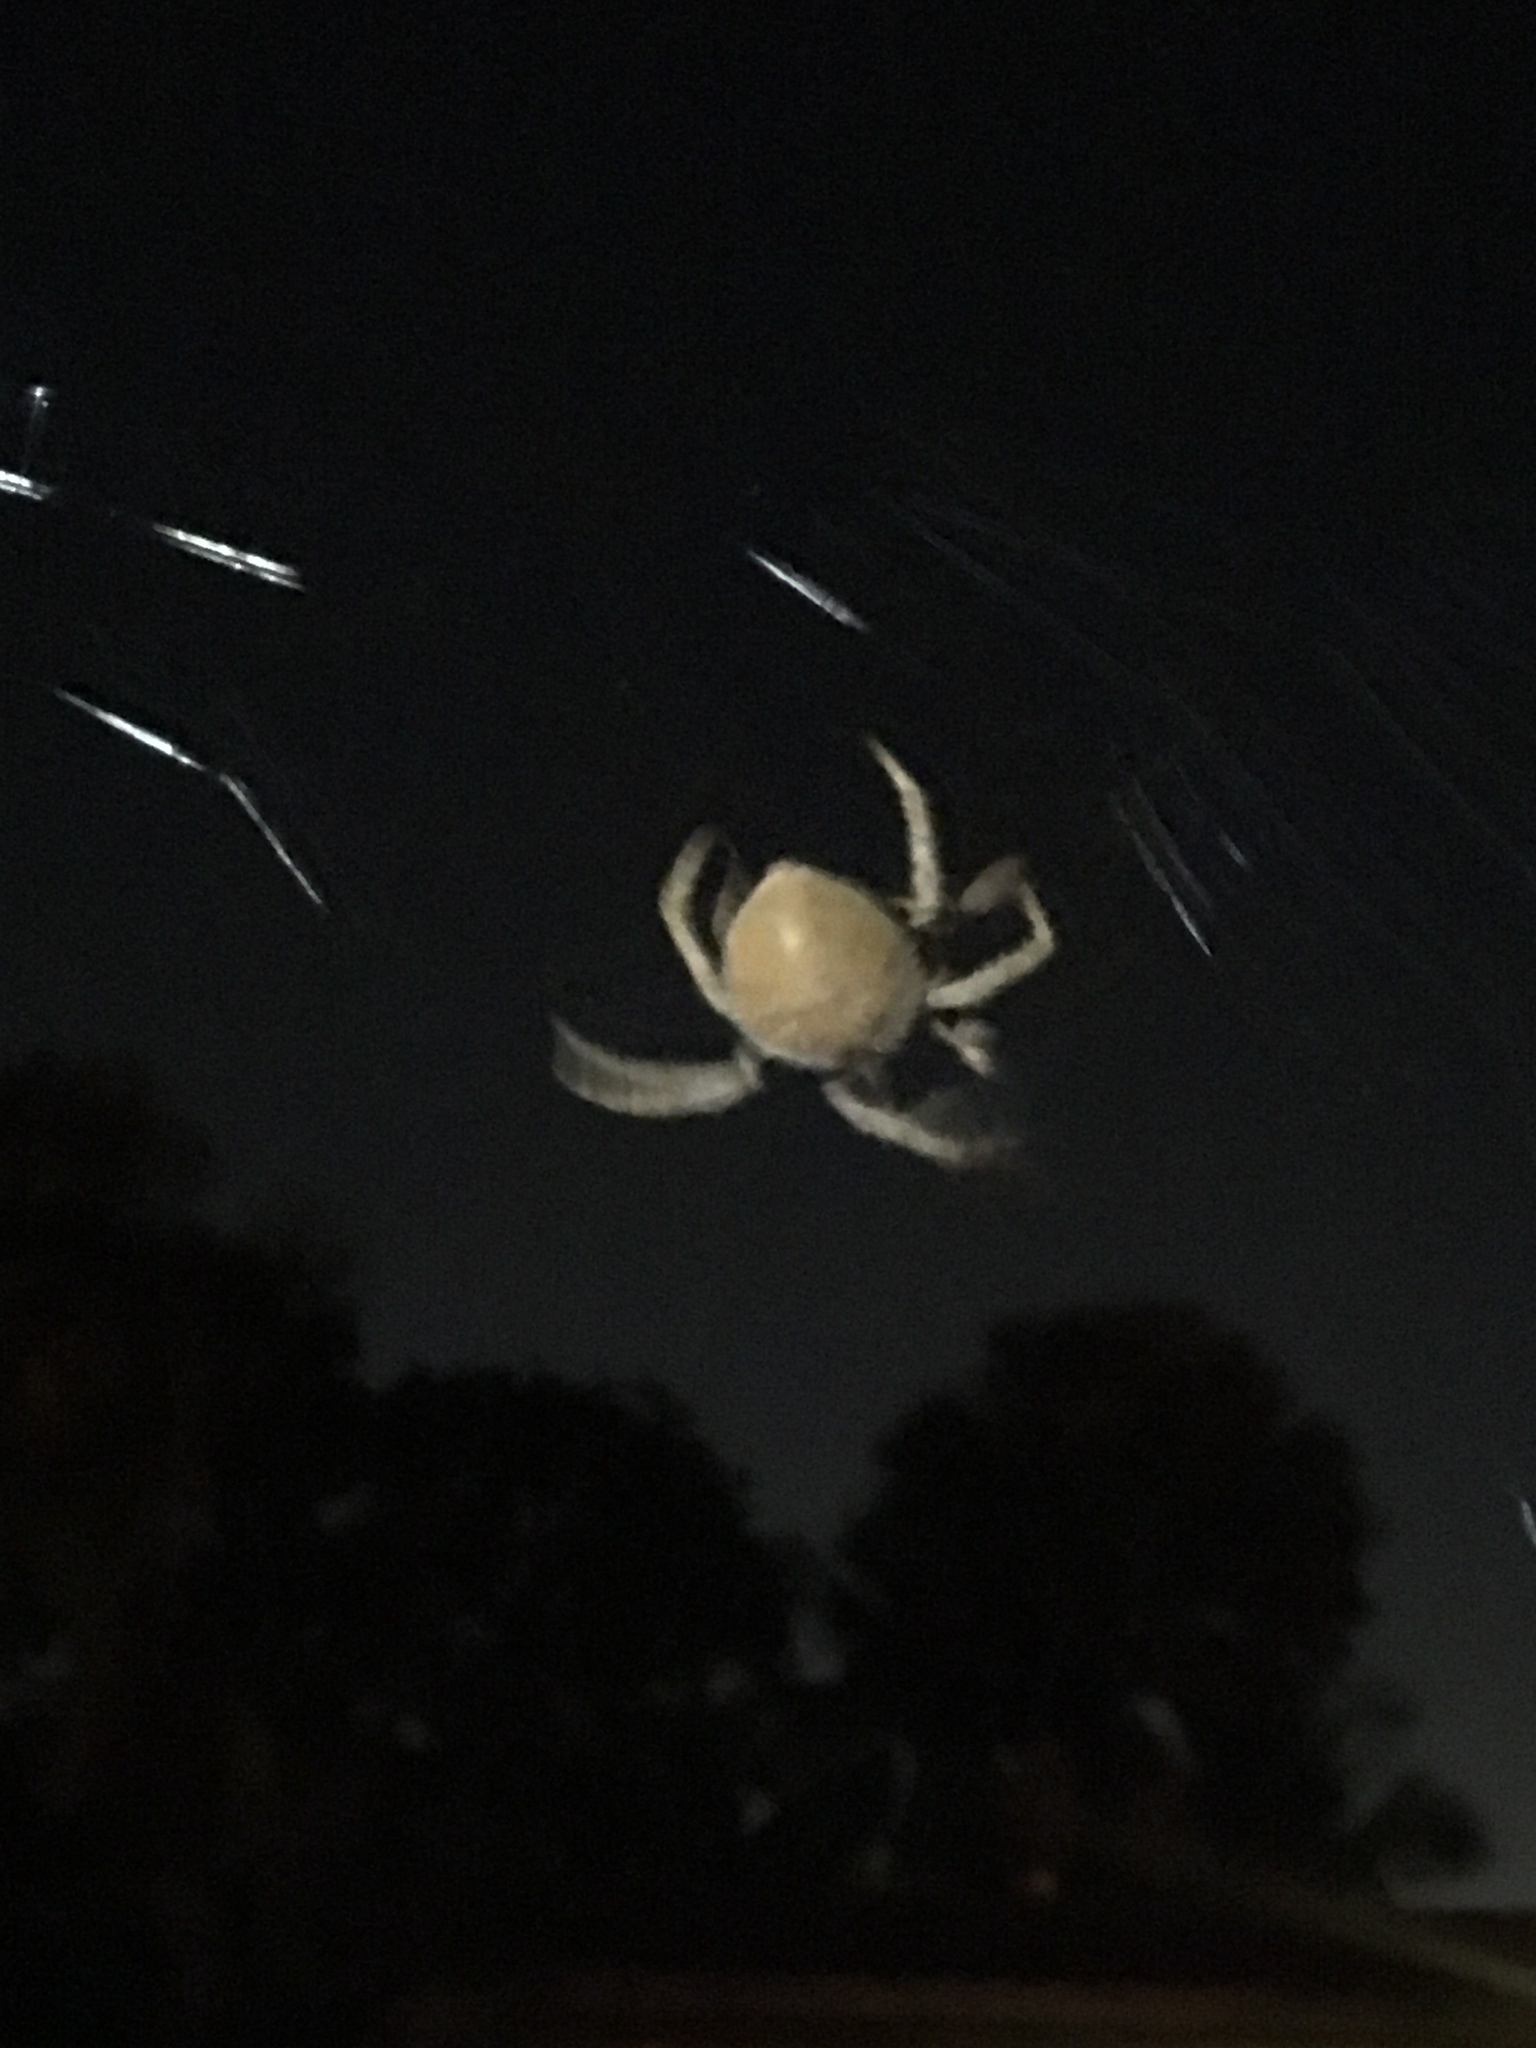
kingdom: Animalia
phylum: Arthropoda
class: Arachnida
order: Araneae
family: Araneidae
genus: Eriophora
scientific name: Eriophora ravilla
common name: Orb weavers
